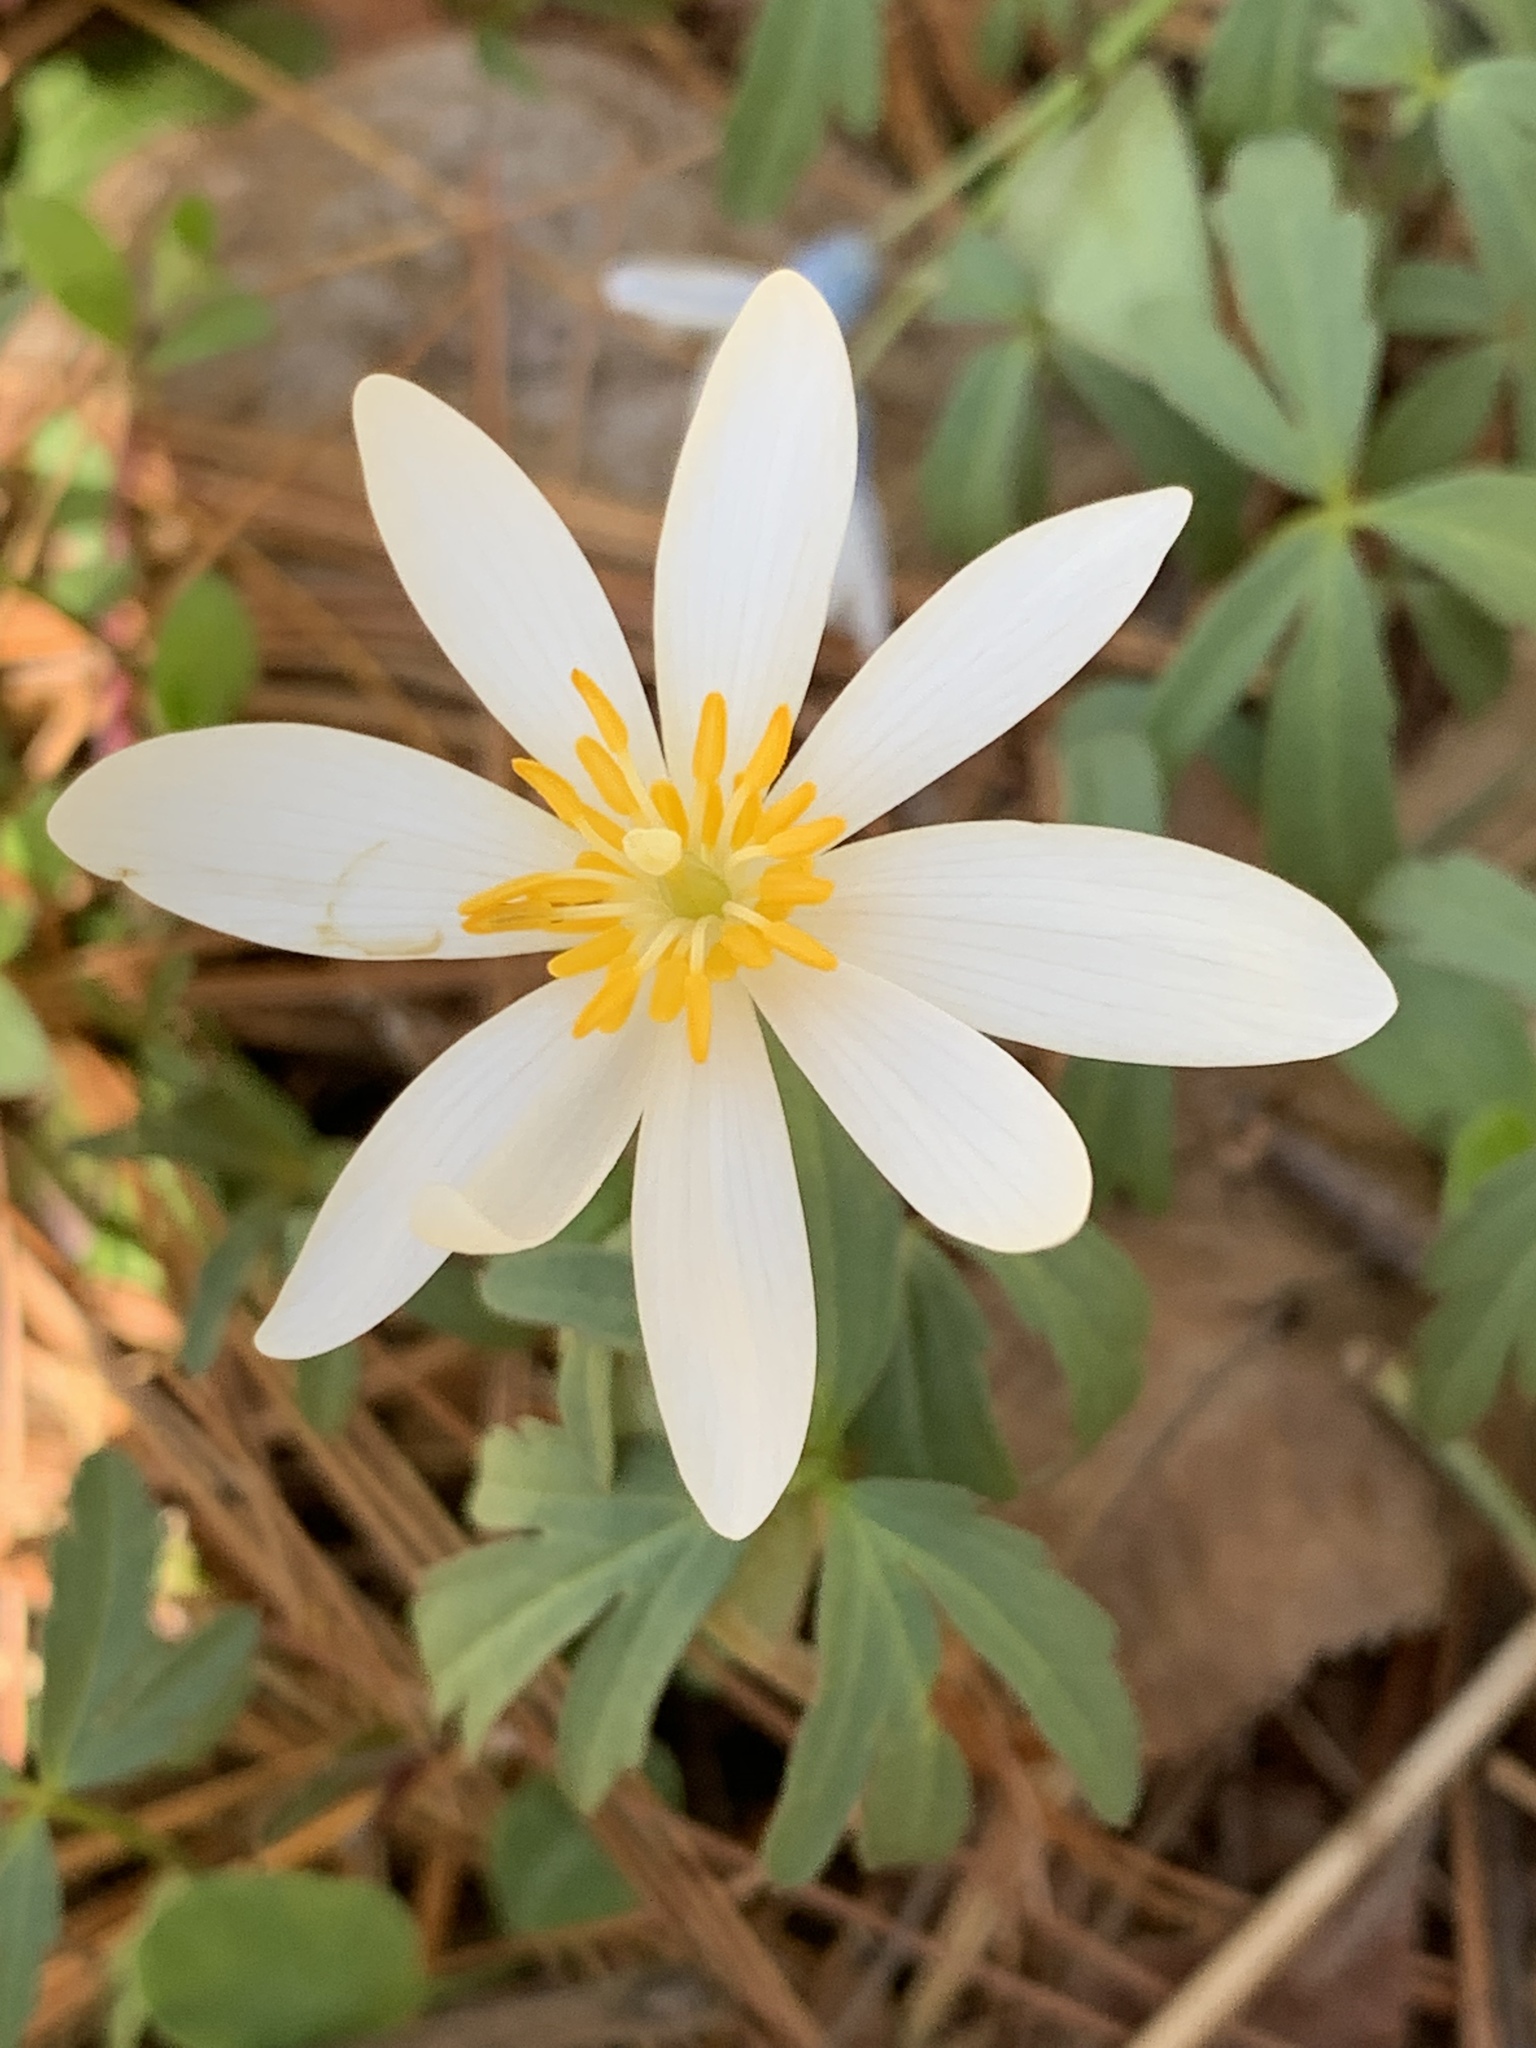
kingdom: Plantae
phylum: Tracheophyta
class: Magnoliopsida
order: Ranunculales
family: Papaveraceae
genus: Sanguinaria
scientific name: Sanguinaria canadensis
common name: Bloodroot
